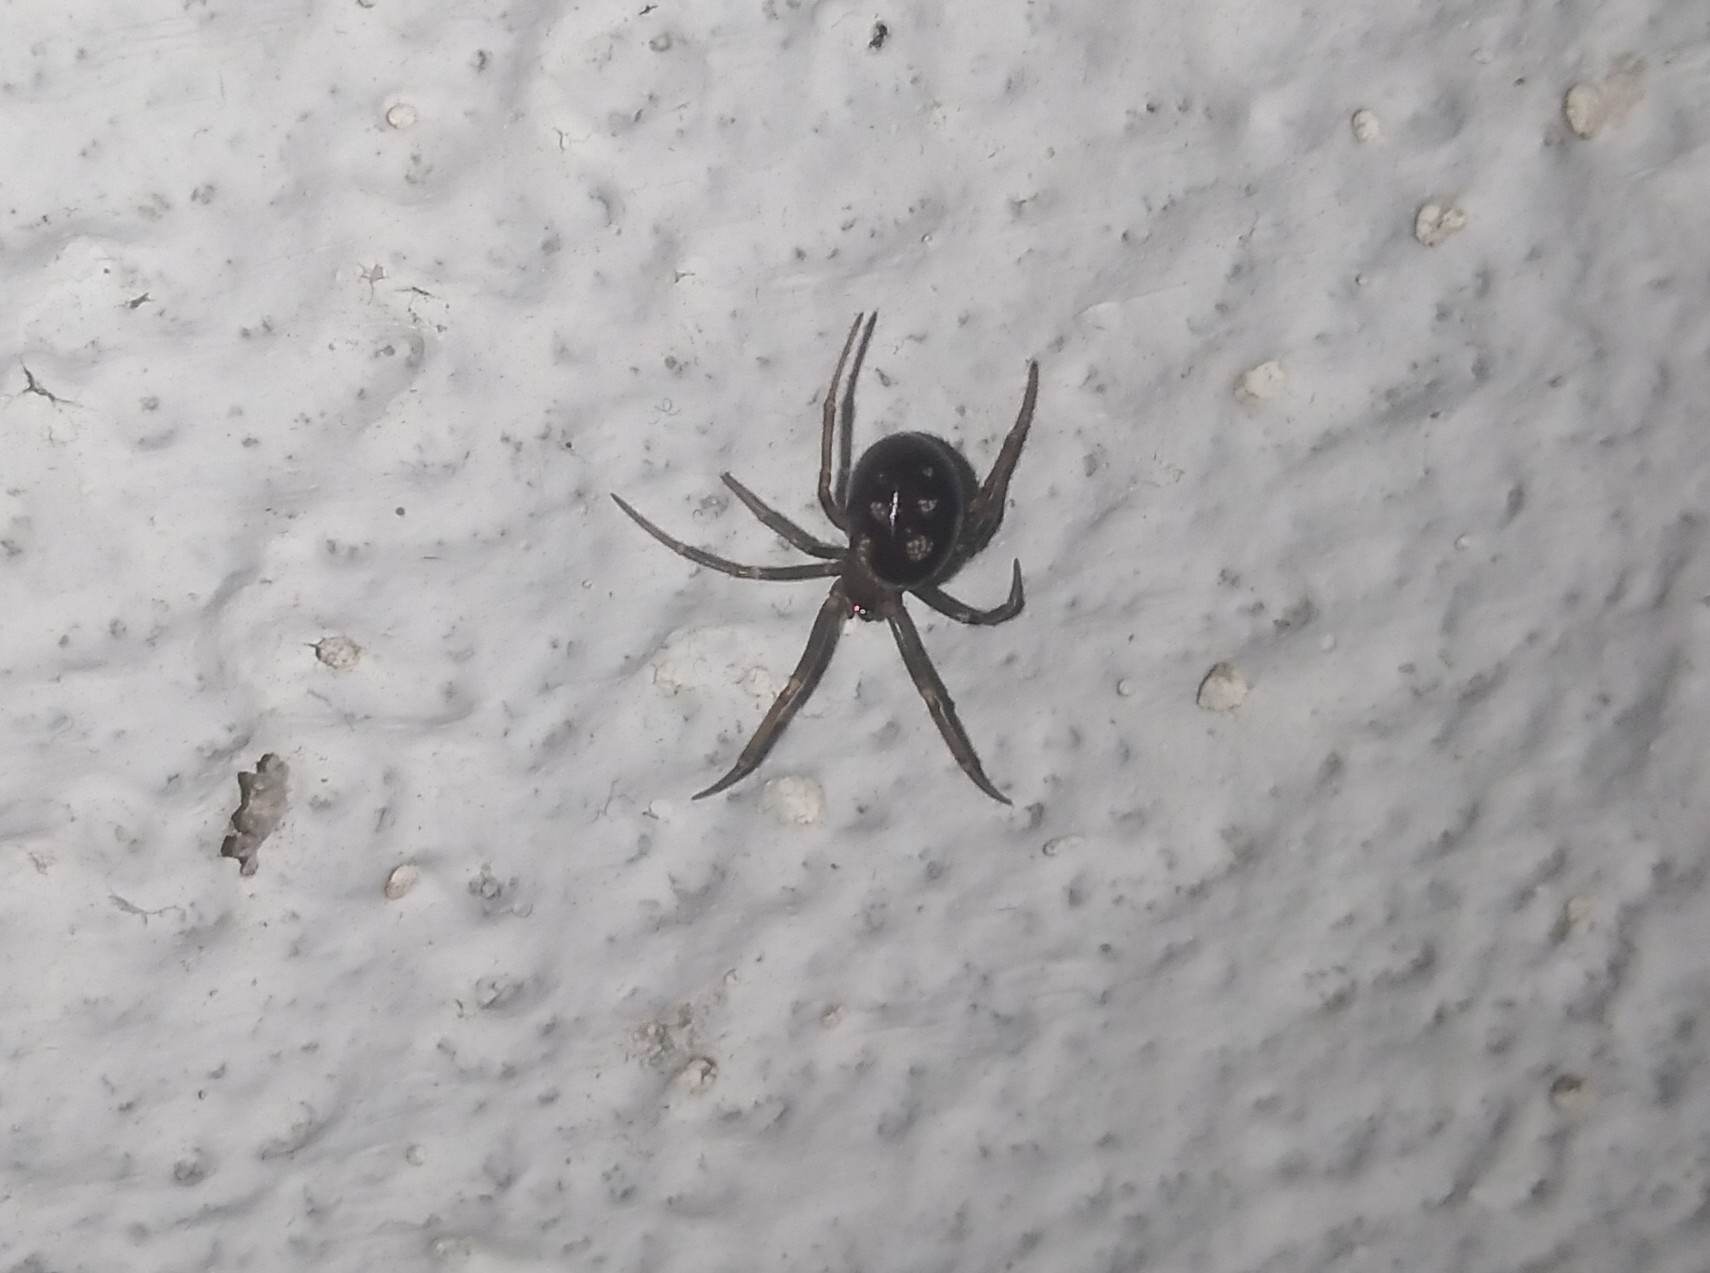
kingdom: Animalia
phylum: Arthropoda
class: Arachnida
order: Araneae
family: Theridiidae
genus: Steatoda
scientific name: Steatoda grossa
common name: False black widow
